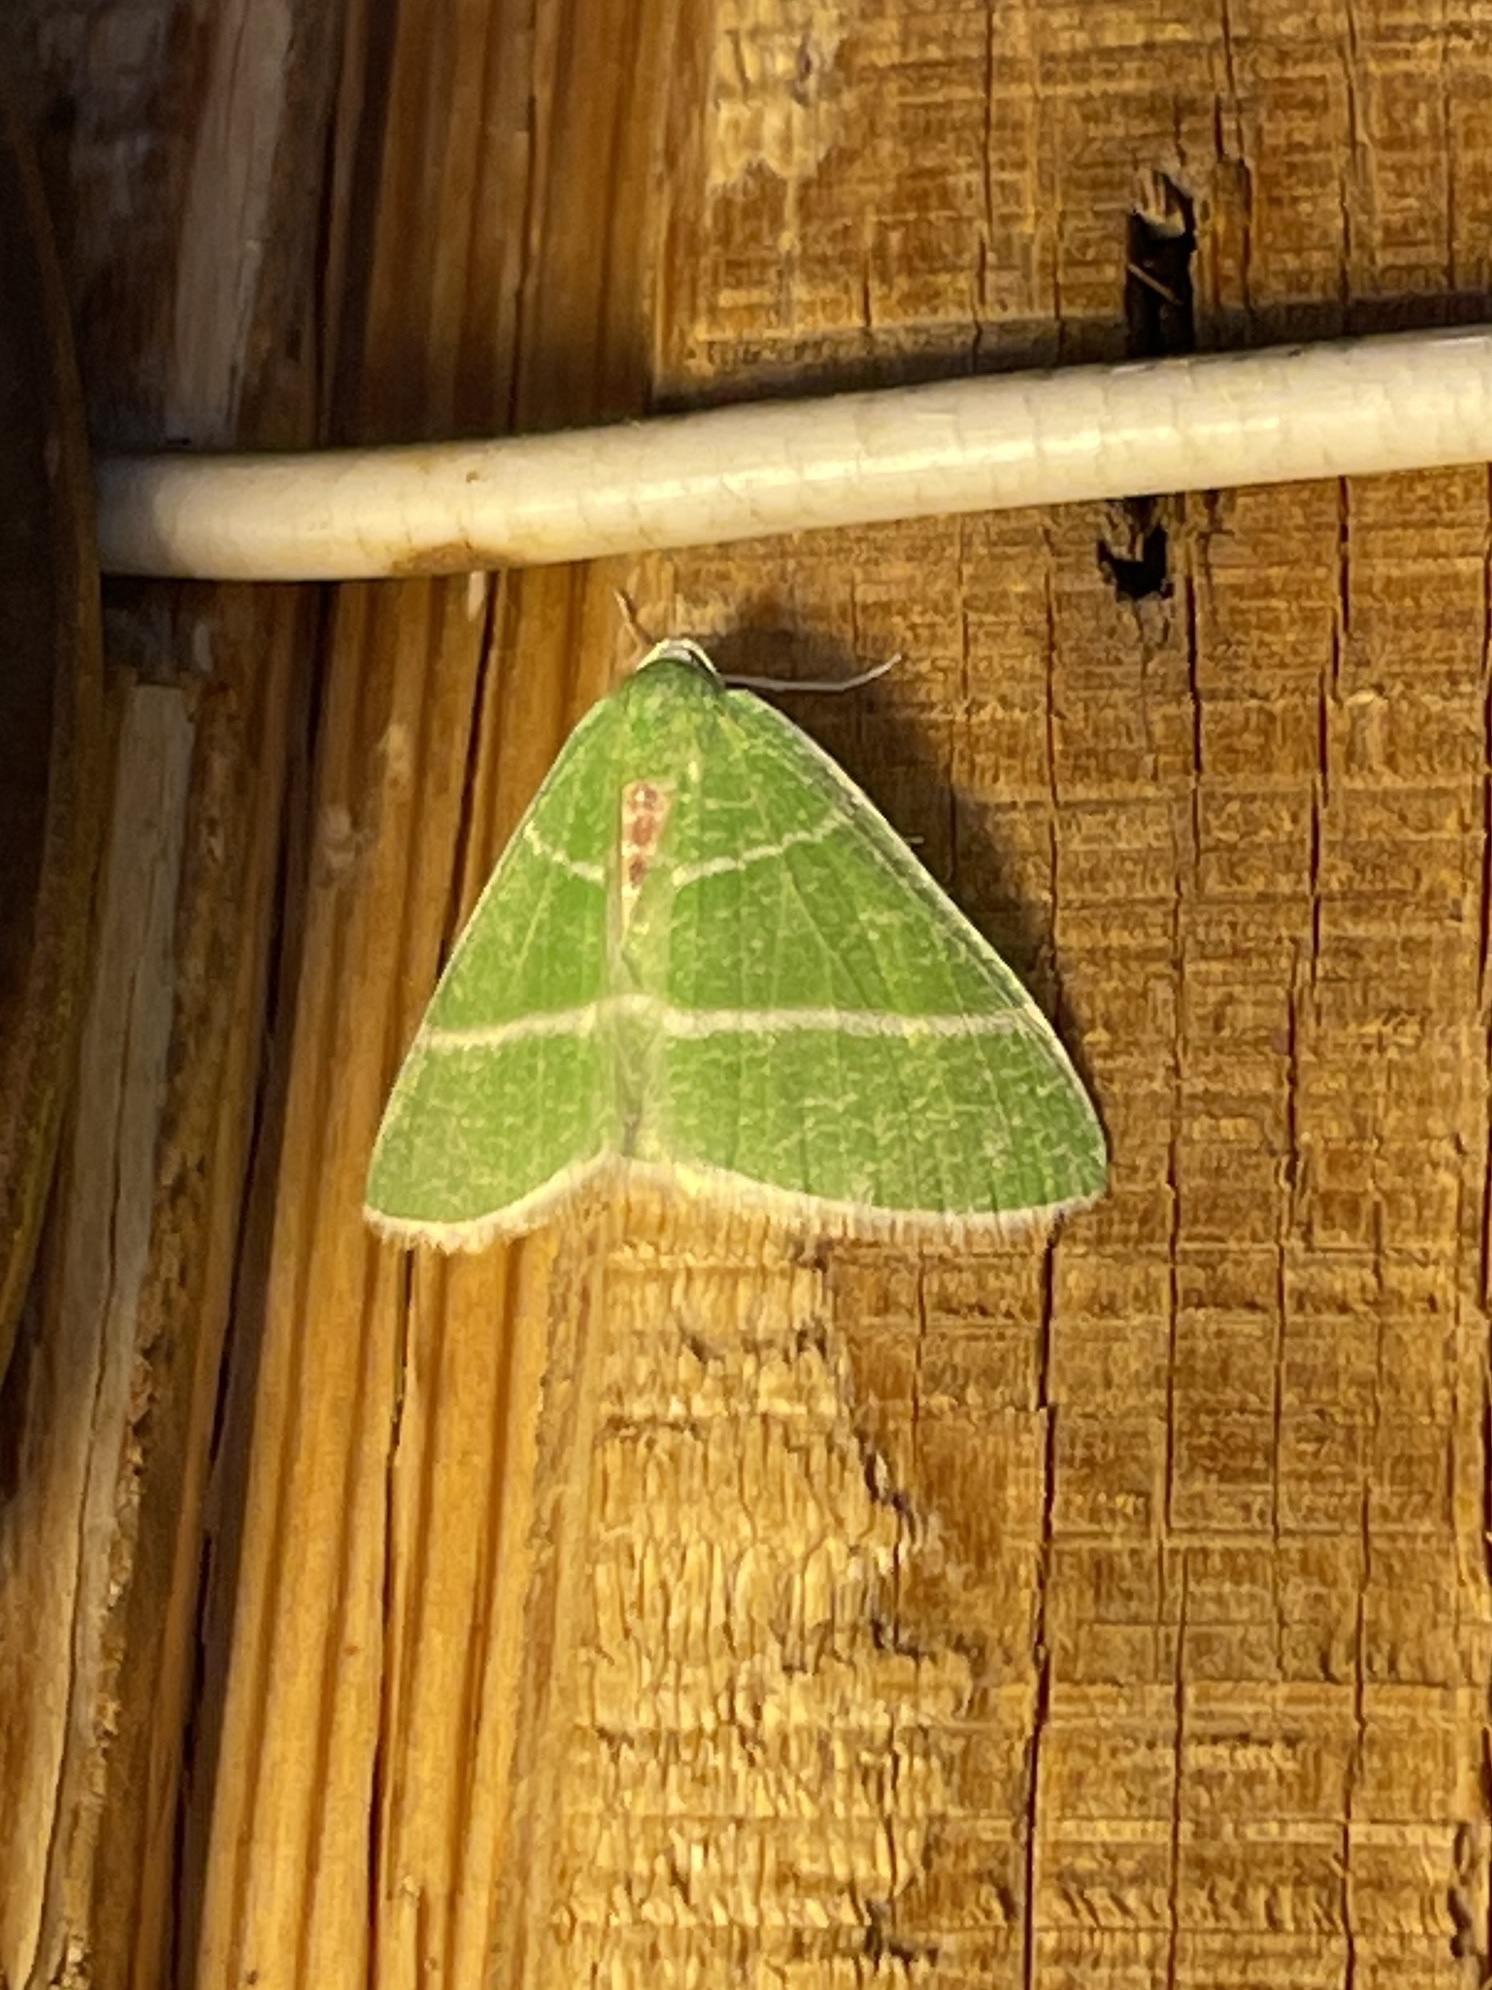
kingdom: Animalia
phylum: Arthropoda
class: Insecta
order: Lepidoptera
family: Geometridae
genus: Nemoria
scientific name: Nemoria subsequens
